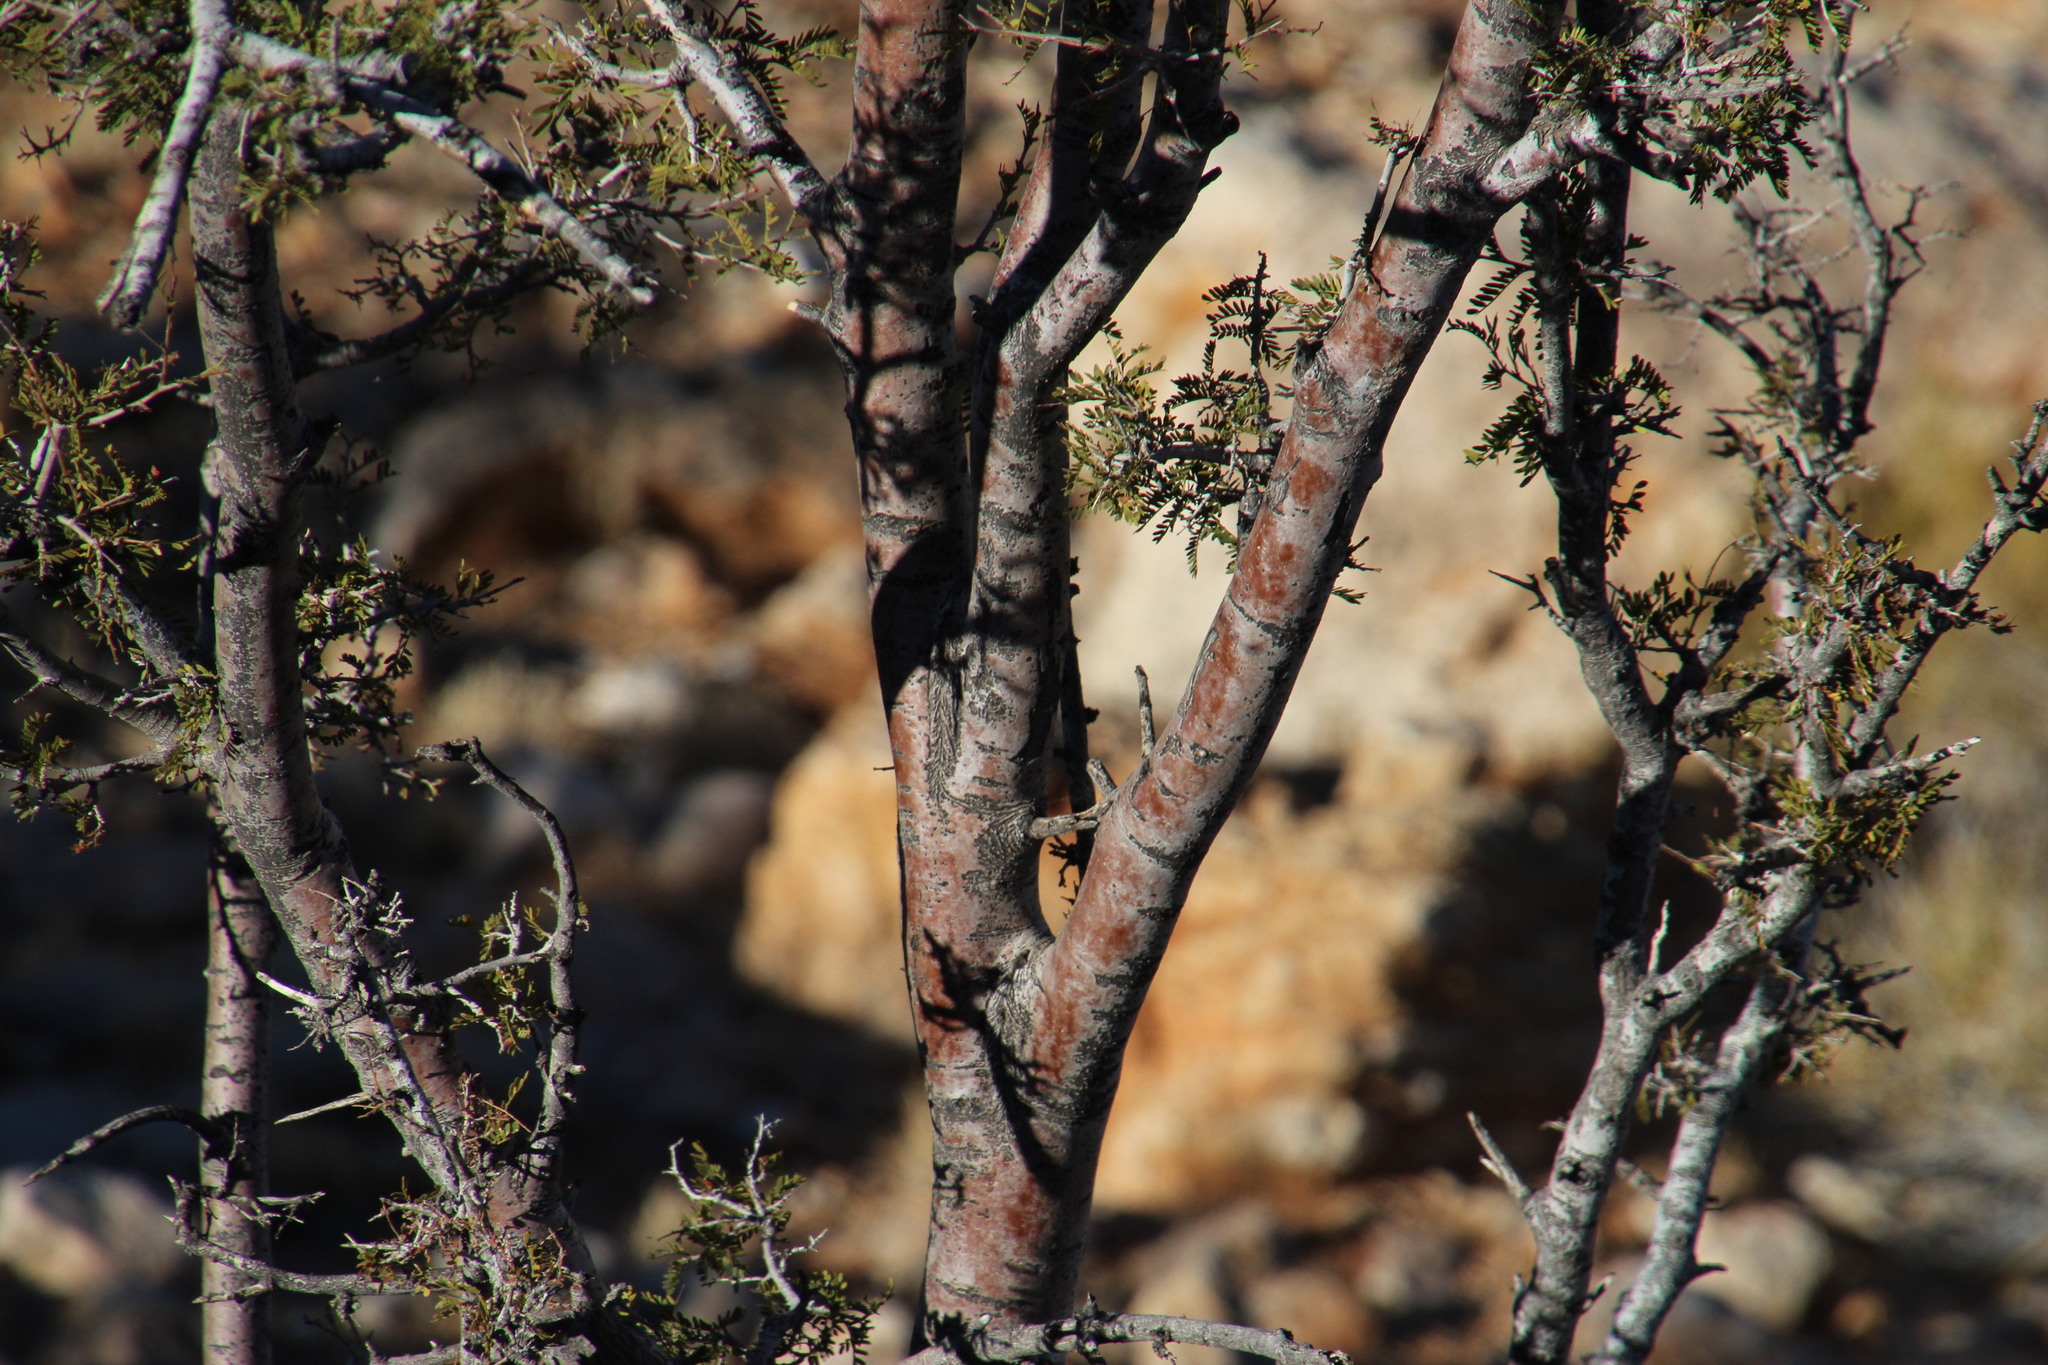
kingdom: Plantae
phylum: Tracheophyta
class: Magnoliopsida
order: Fabales
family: Fabaceae
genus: Schotia
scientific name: Schotia afra
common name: Hottentot's bean
